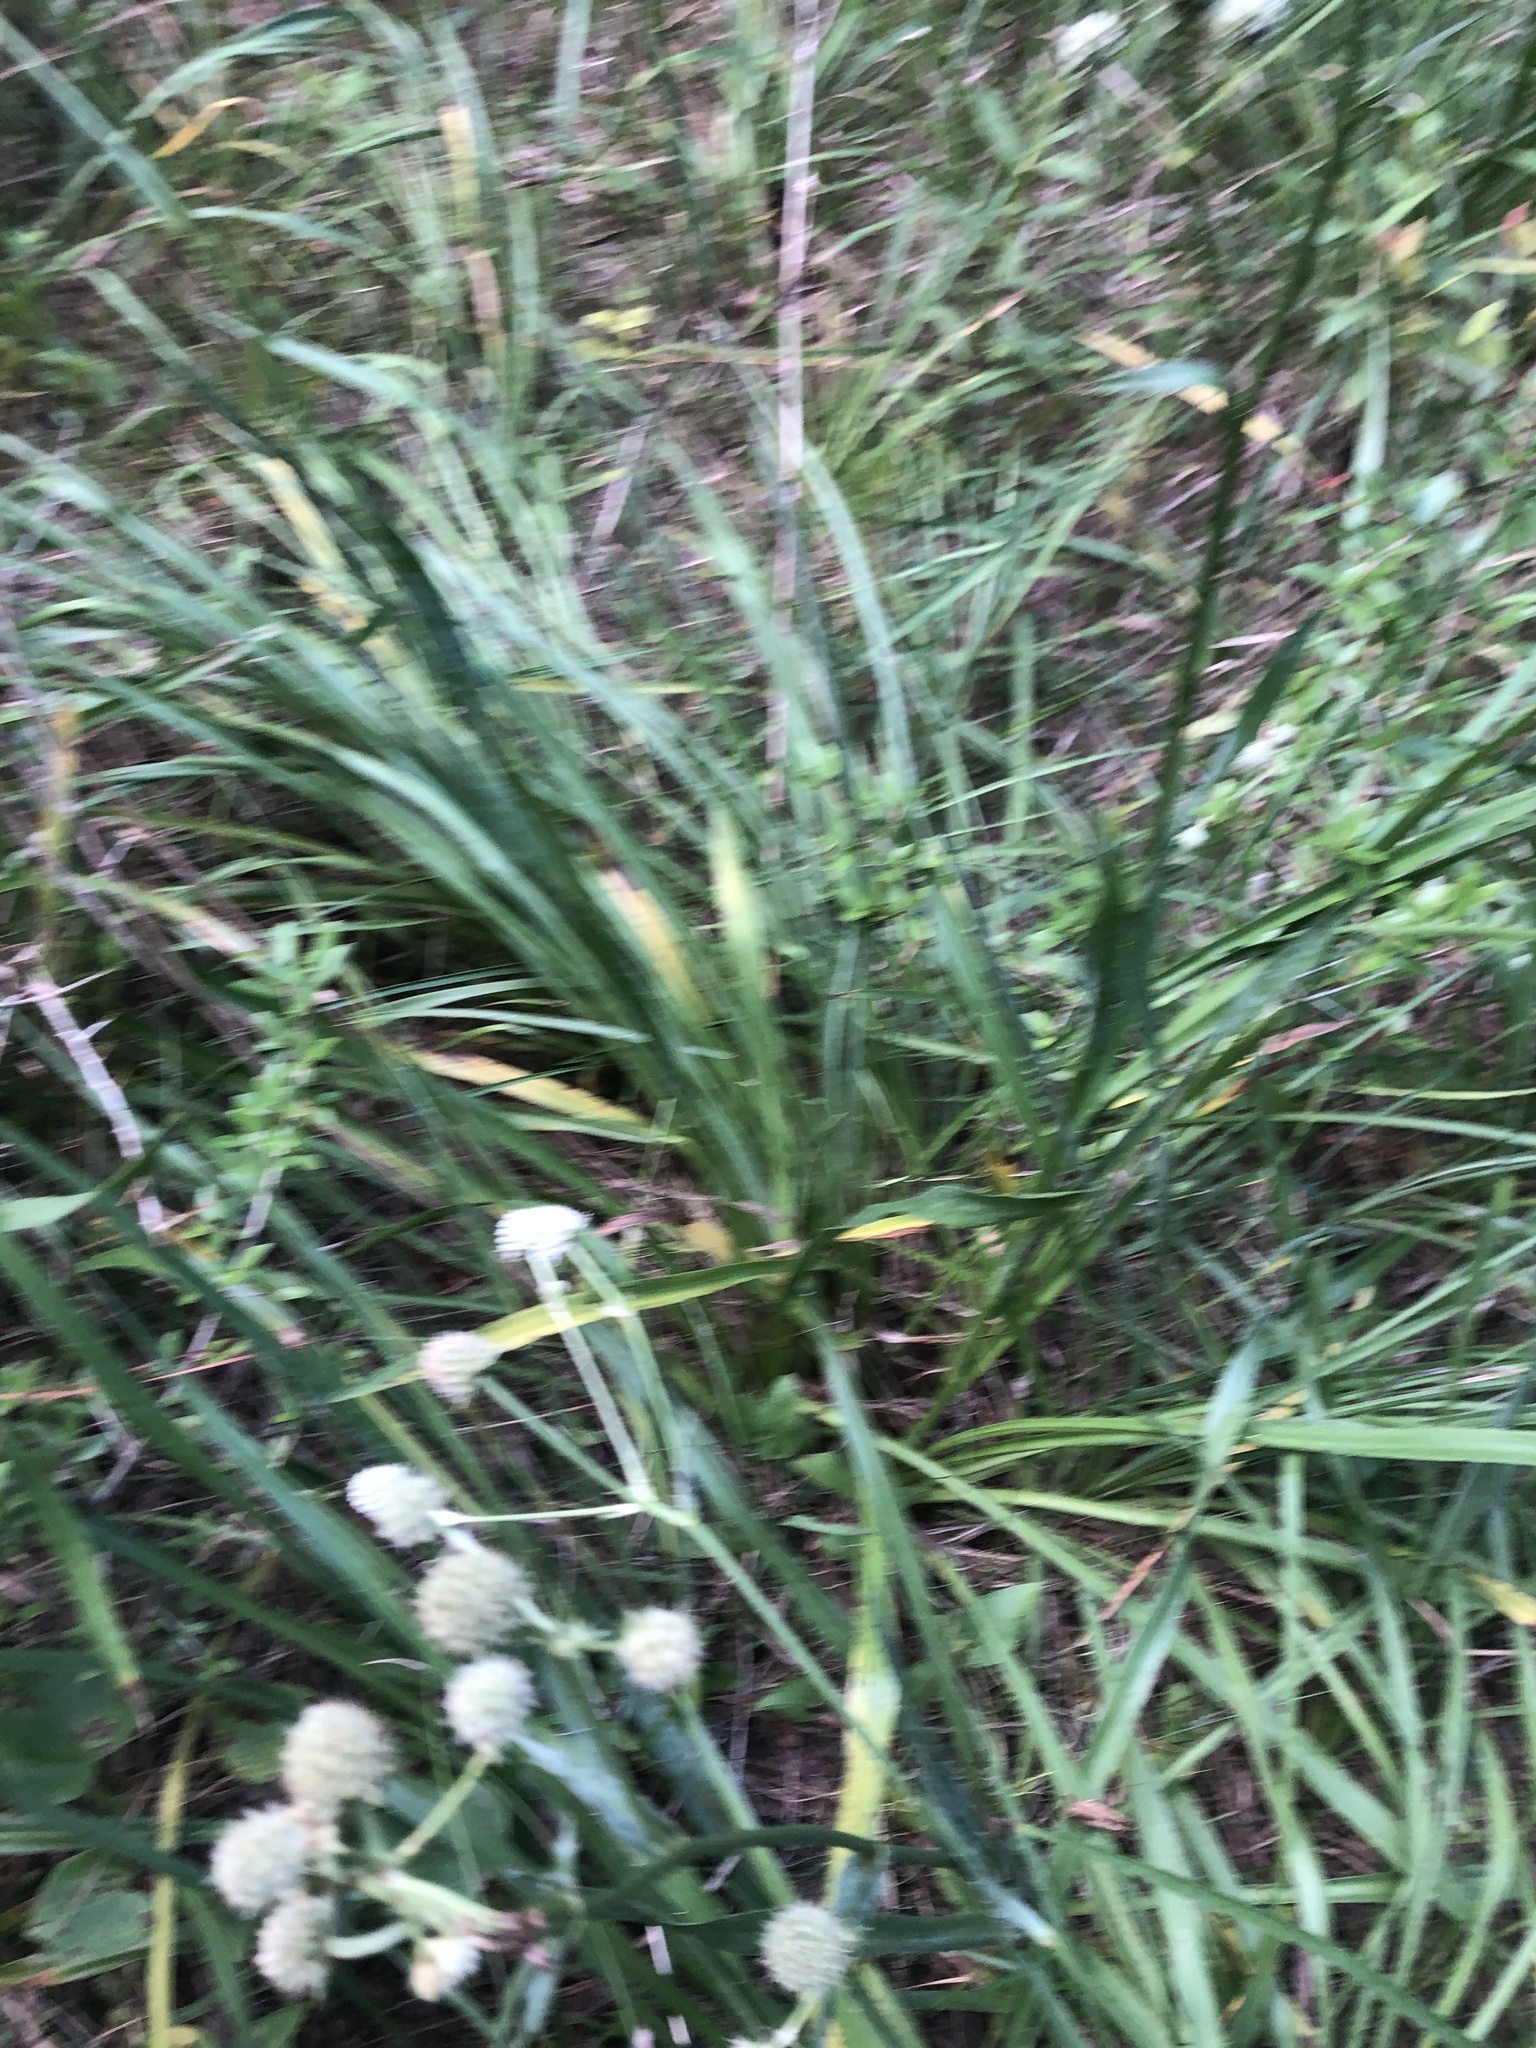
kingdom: Plantae
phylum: Tracheophyta
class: Magnoliopsida
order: Apiales
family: Apiaceae
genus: Eryngium
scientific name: Eryngium yuccifolium
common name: Button eryngo
